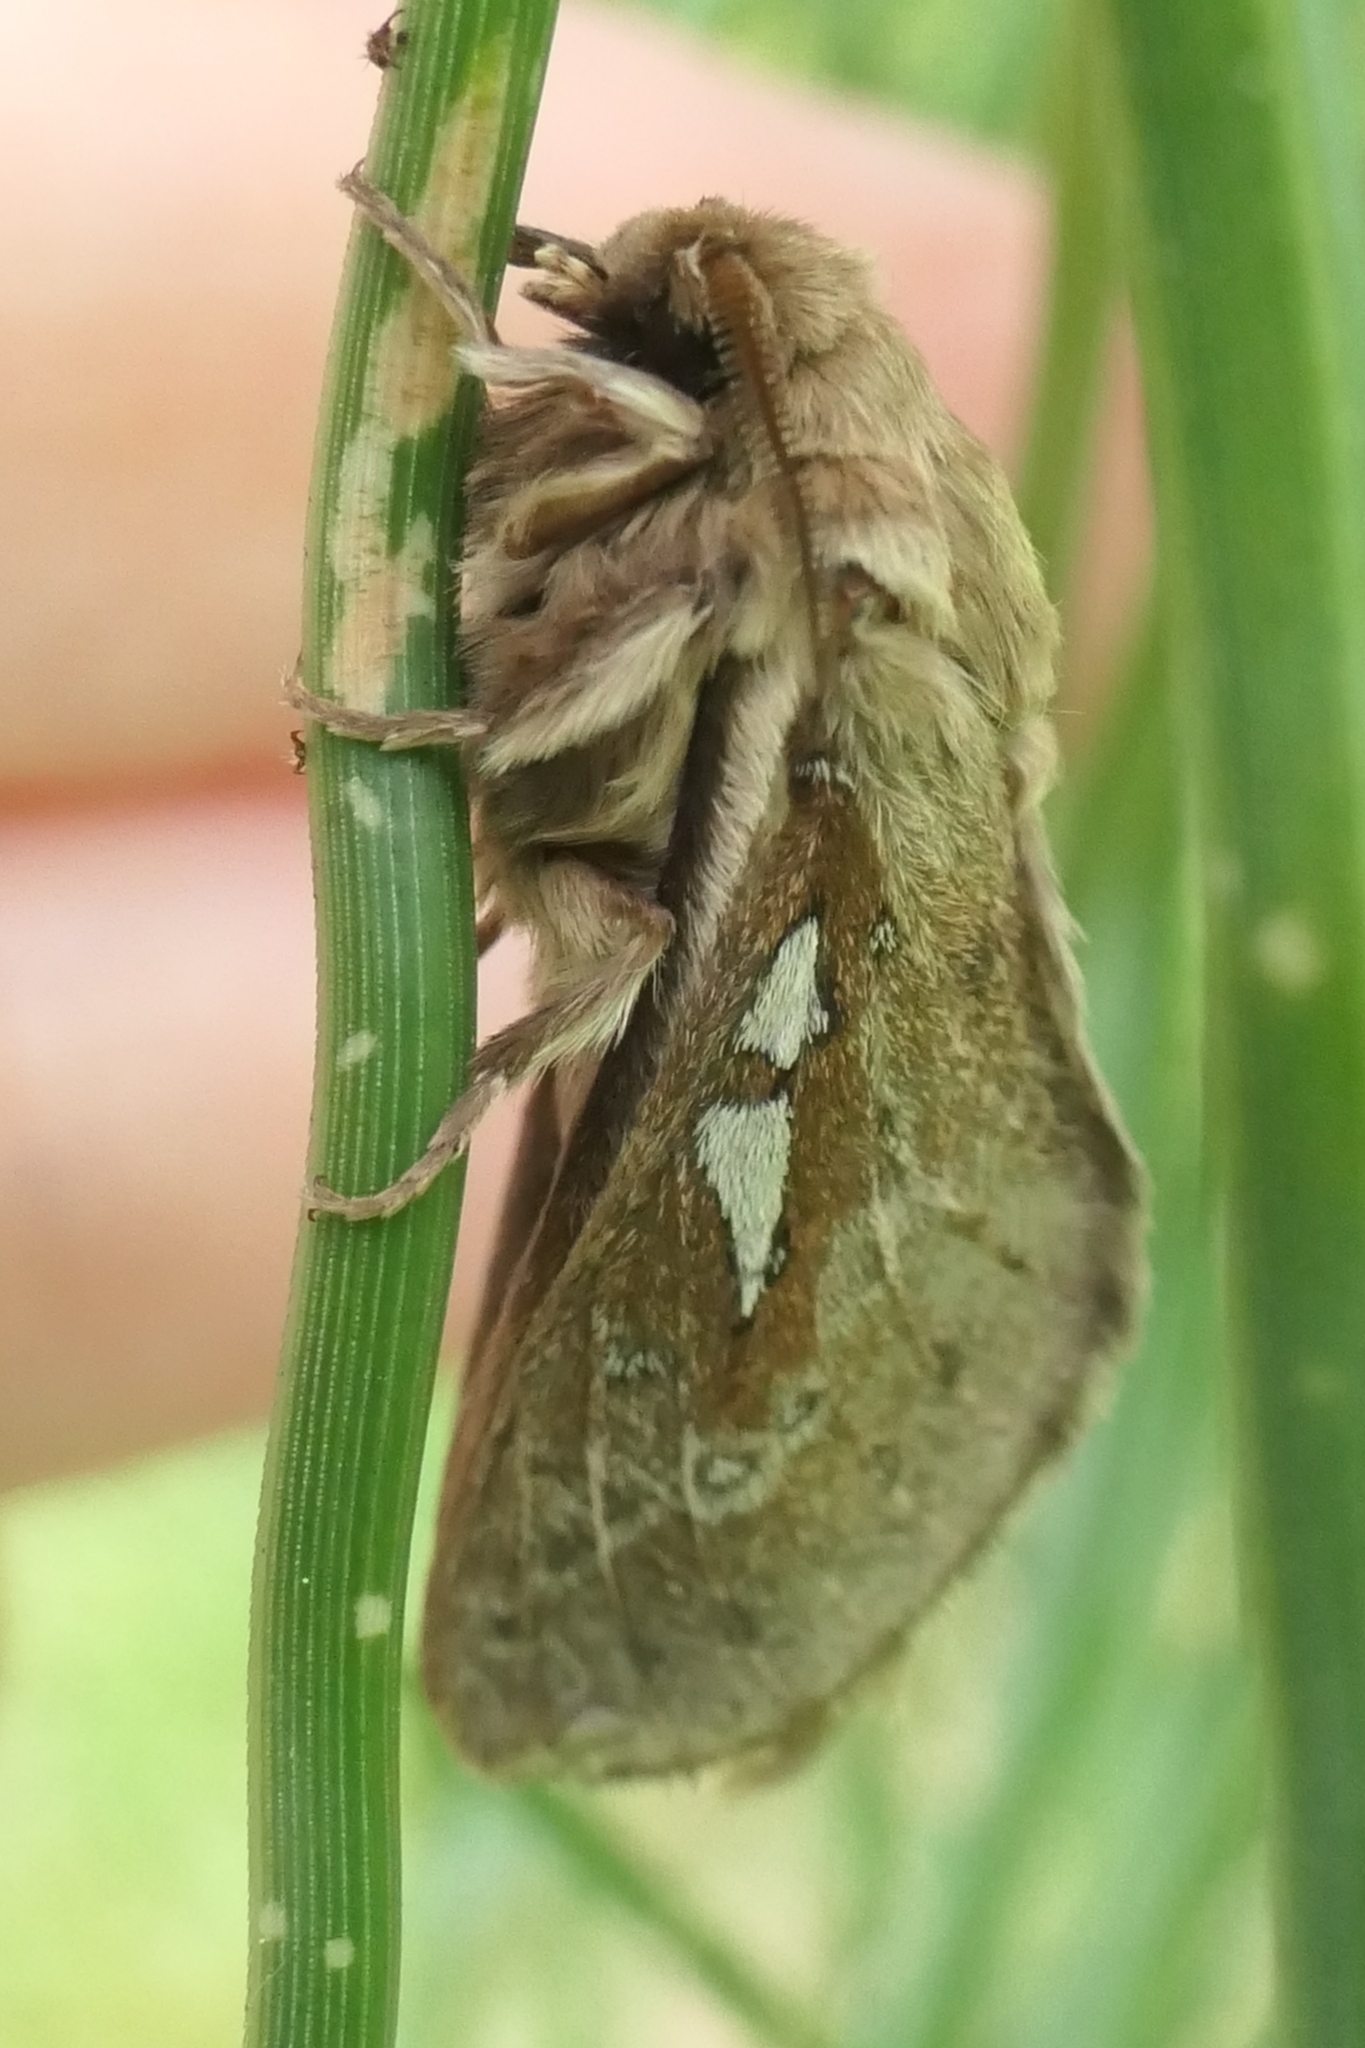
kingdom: Animalia
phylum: Arthropoda
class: Insecta
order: Lepidoptera
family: Hepialidae
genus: Wiseana
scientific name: Wiseana copularis
